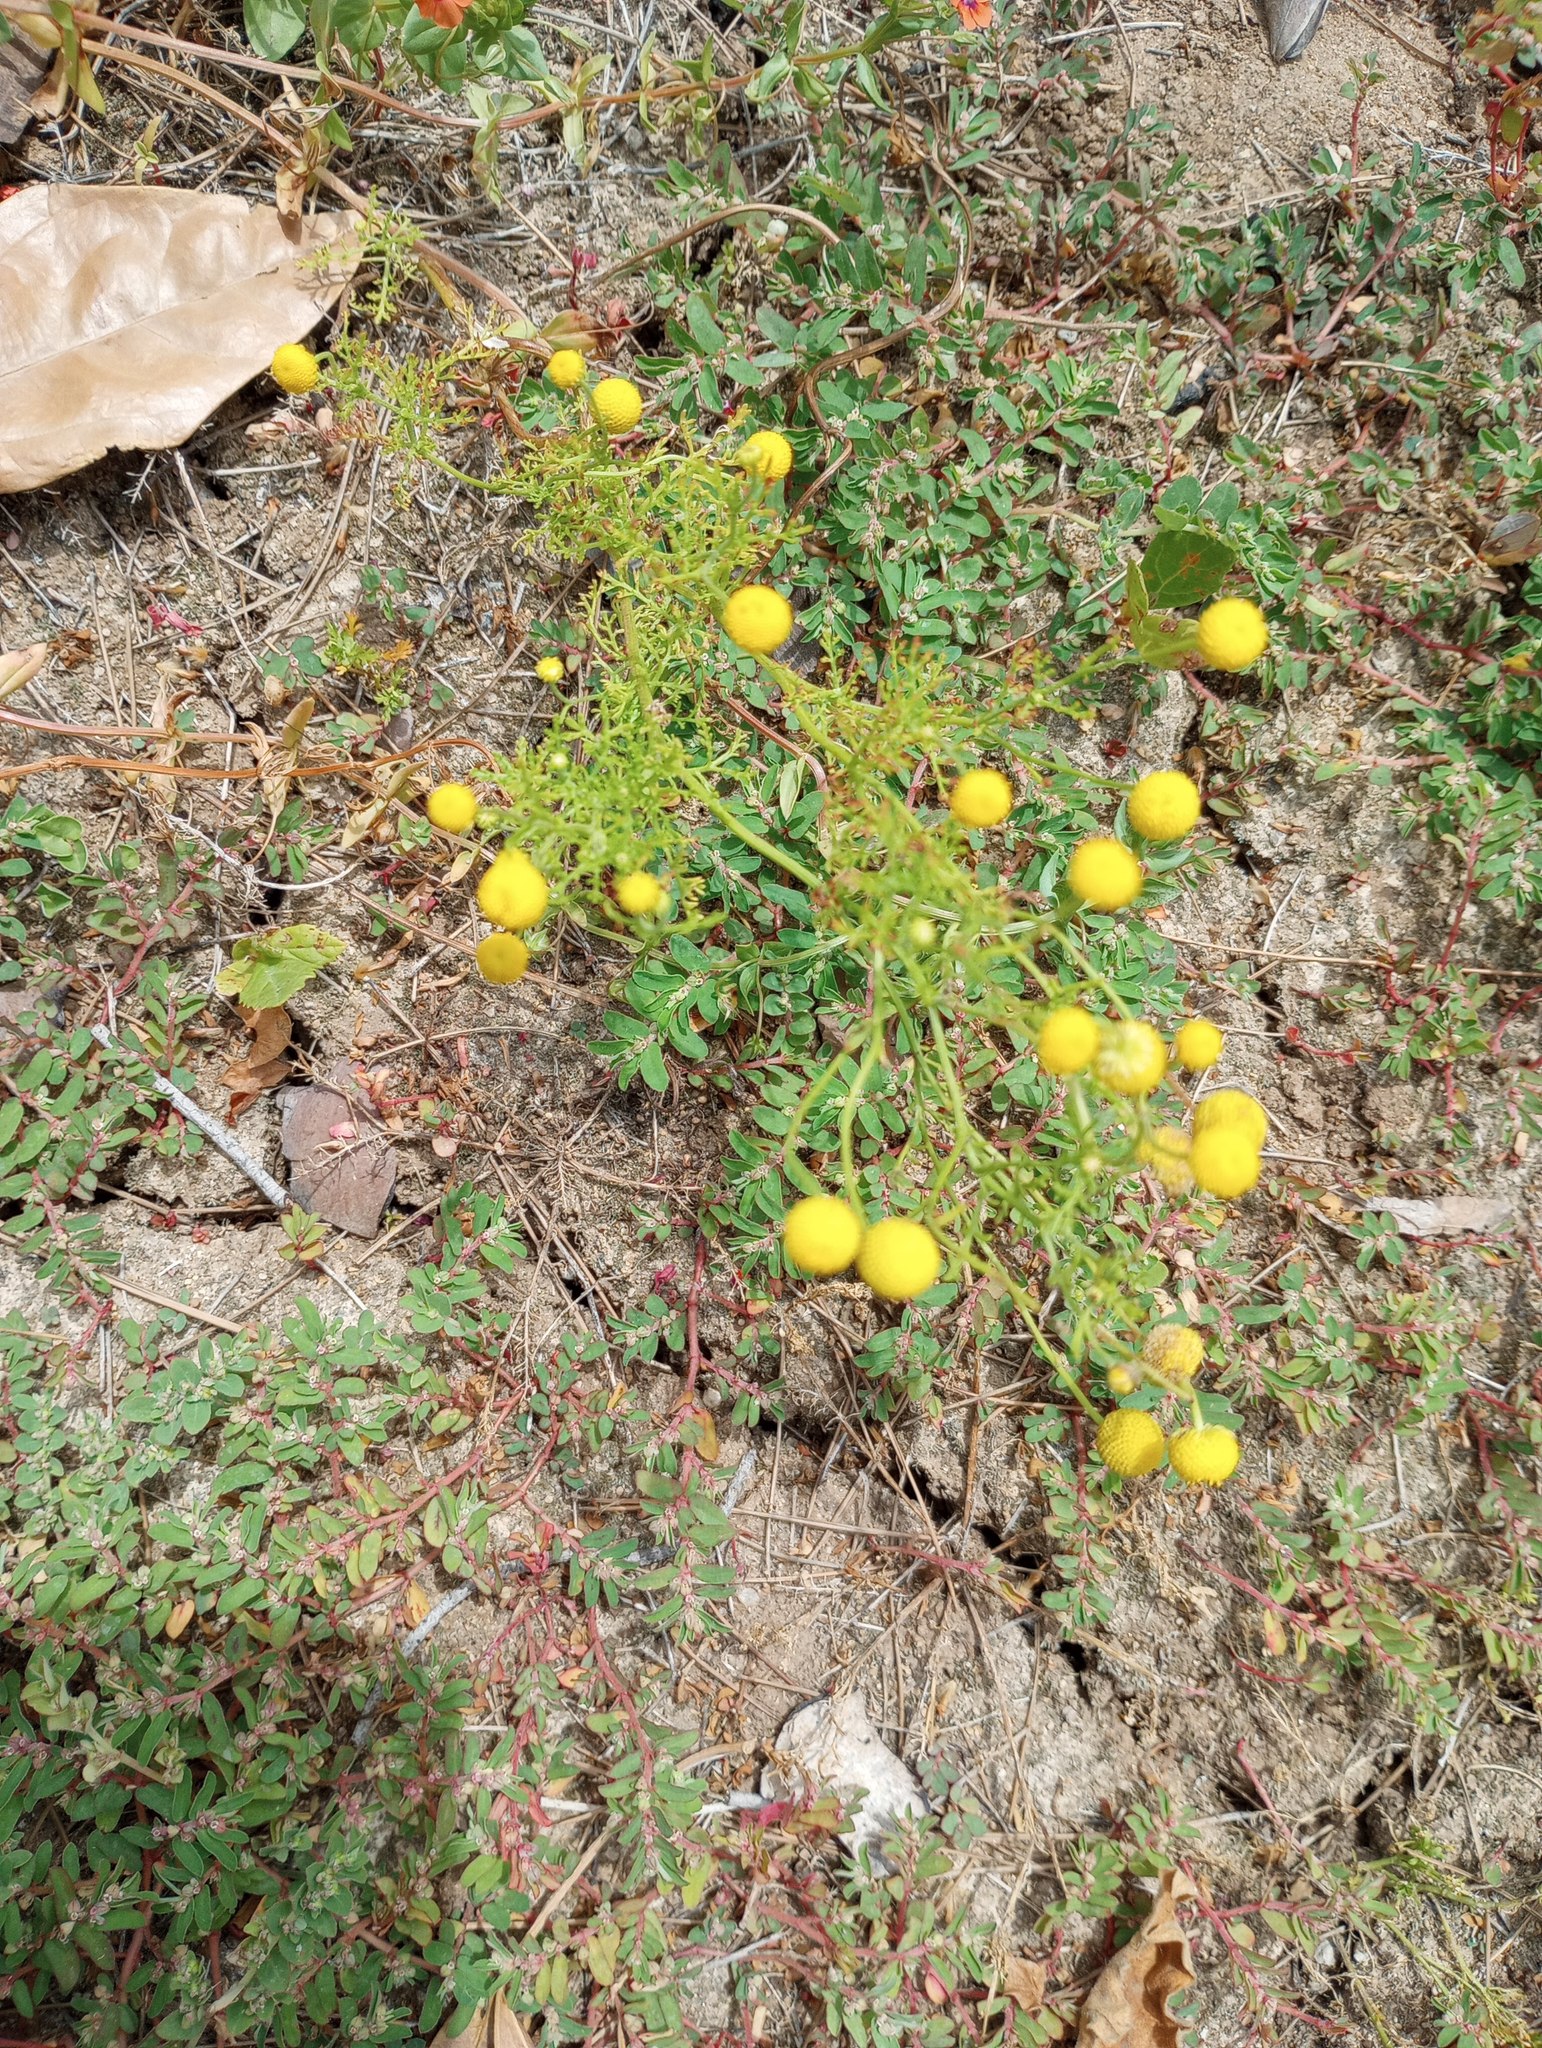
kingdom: Plantae
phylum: Tracheophyta
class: Magnoliopsida
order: Asterales
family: Asteraceae
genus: Oncosiphon
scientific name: Oncosiphon pilulifer
